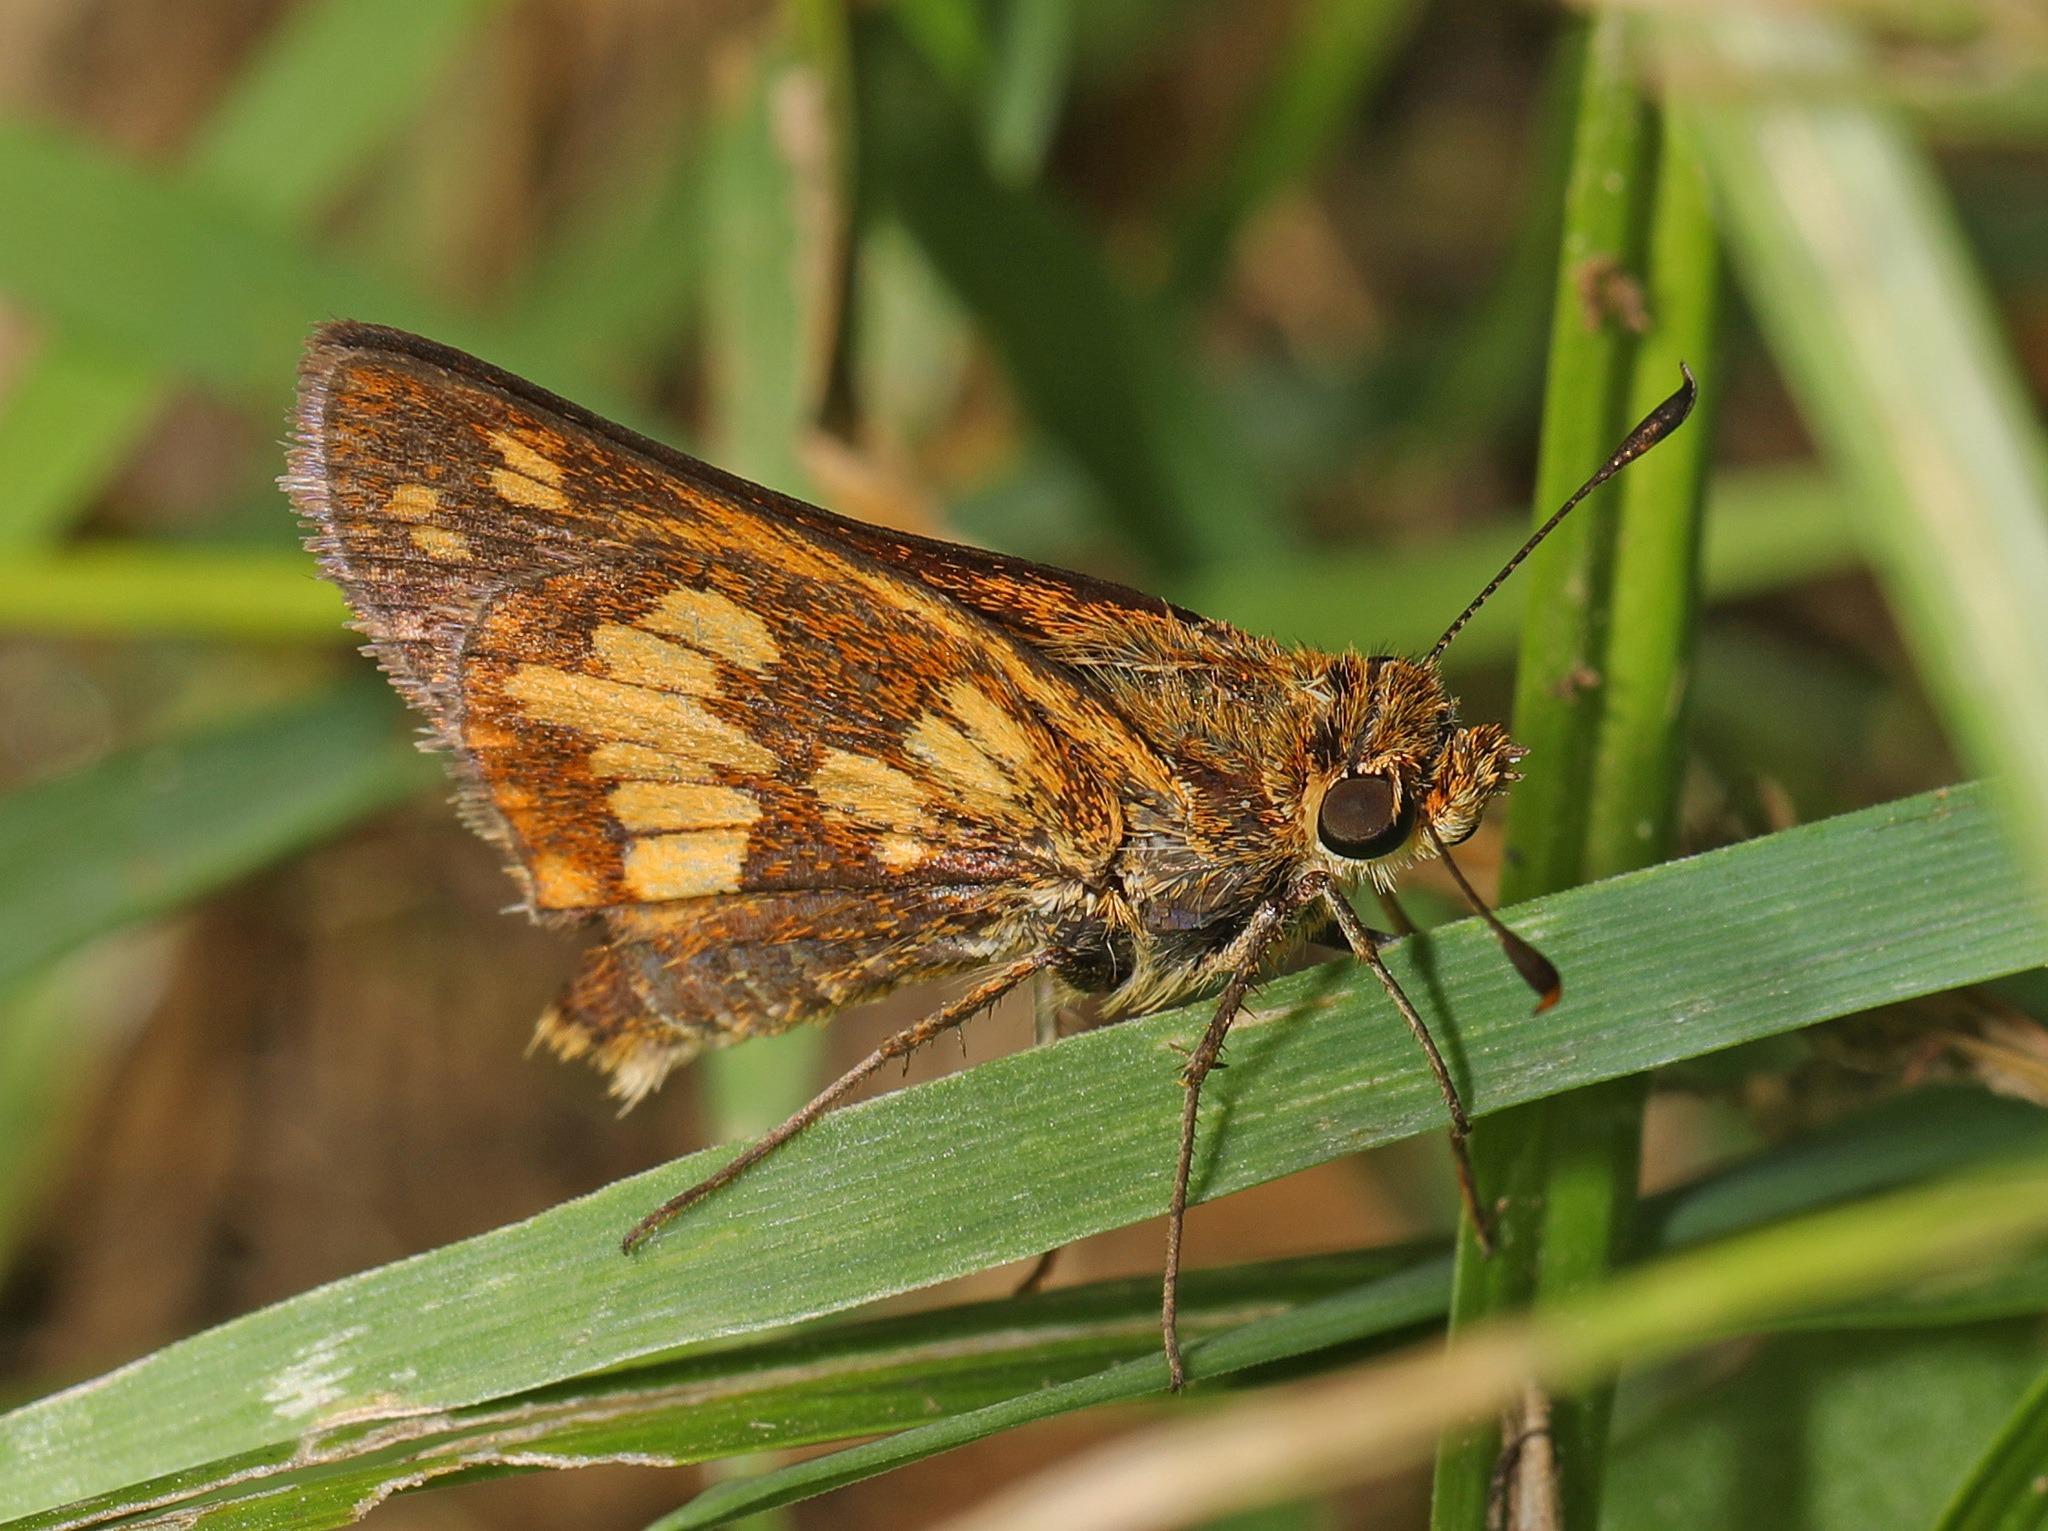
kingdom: Animalia
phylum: Arthropoda
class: Insecta
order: Lepidoptera
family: Hesperiidae
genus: Polites
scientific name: Polites coras
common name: Peck's skipper
